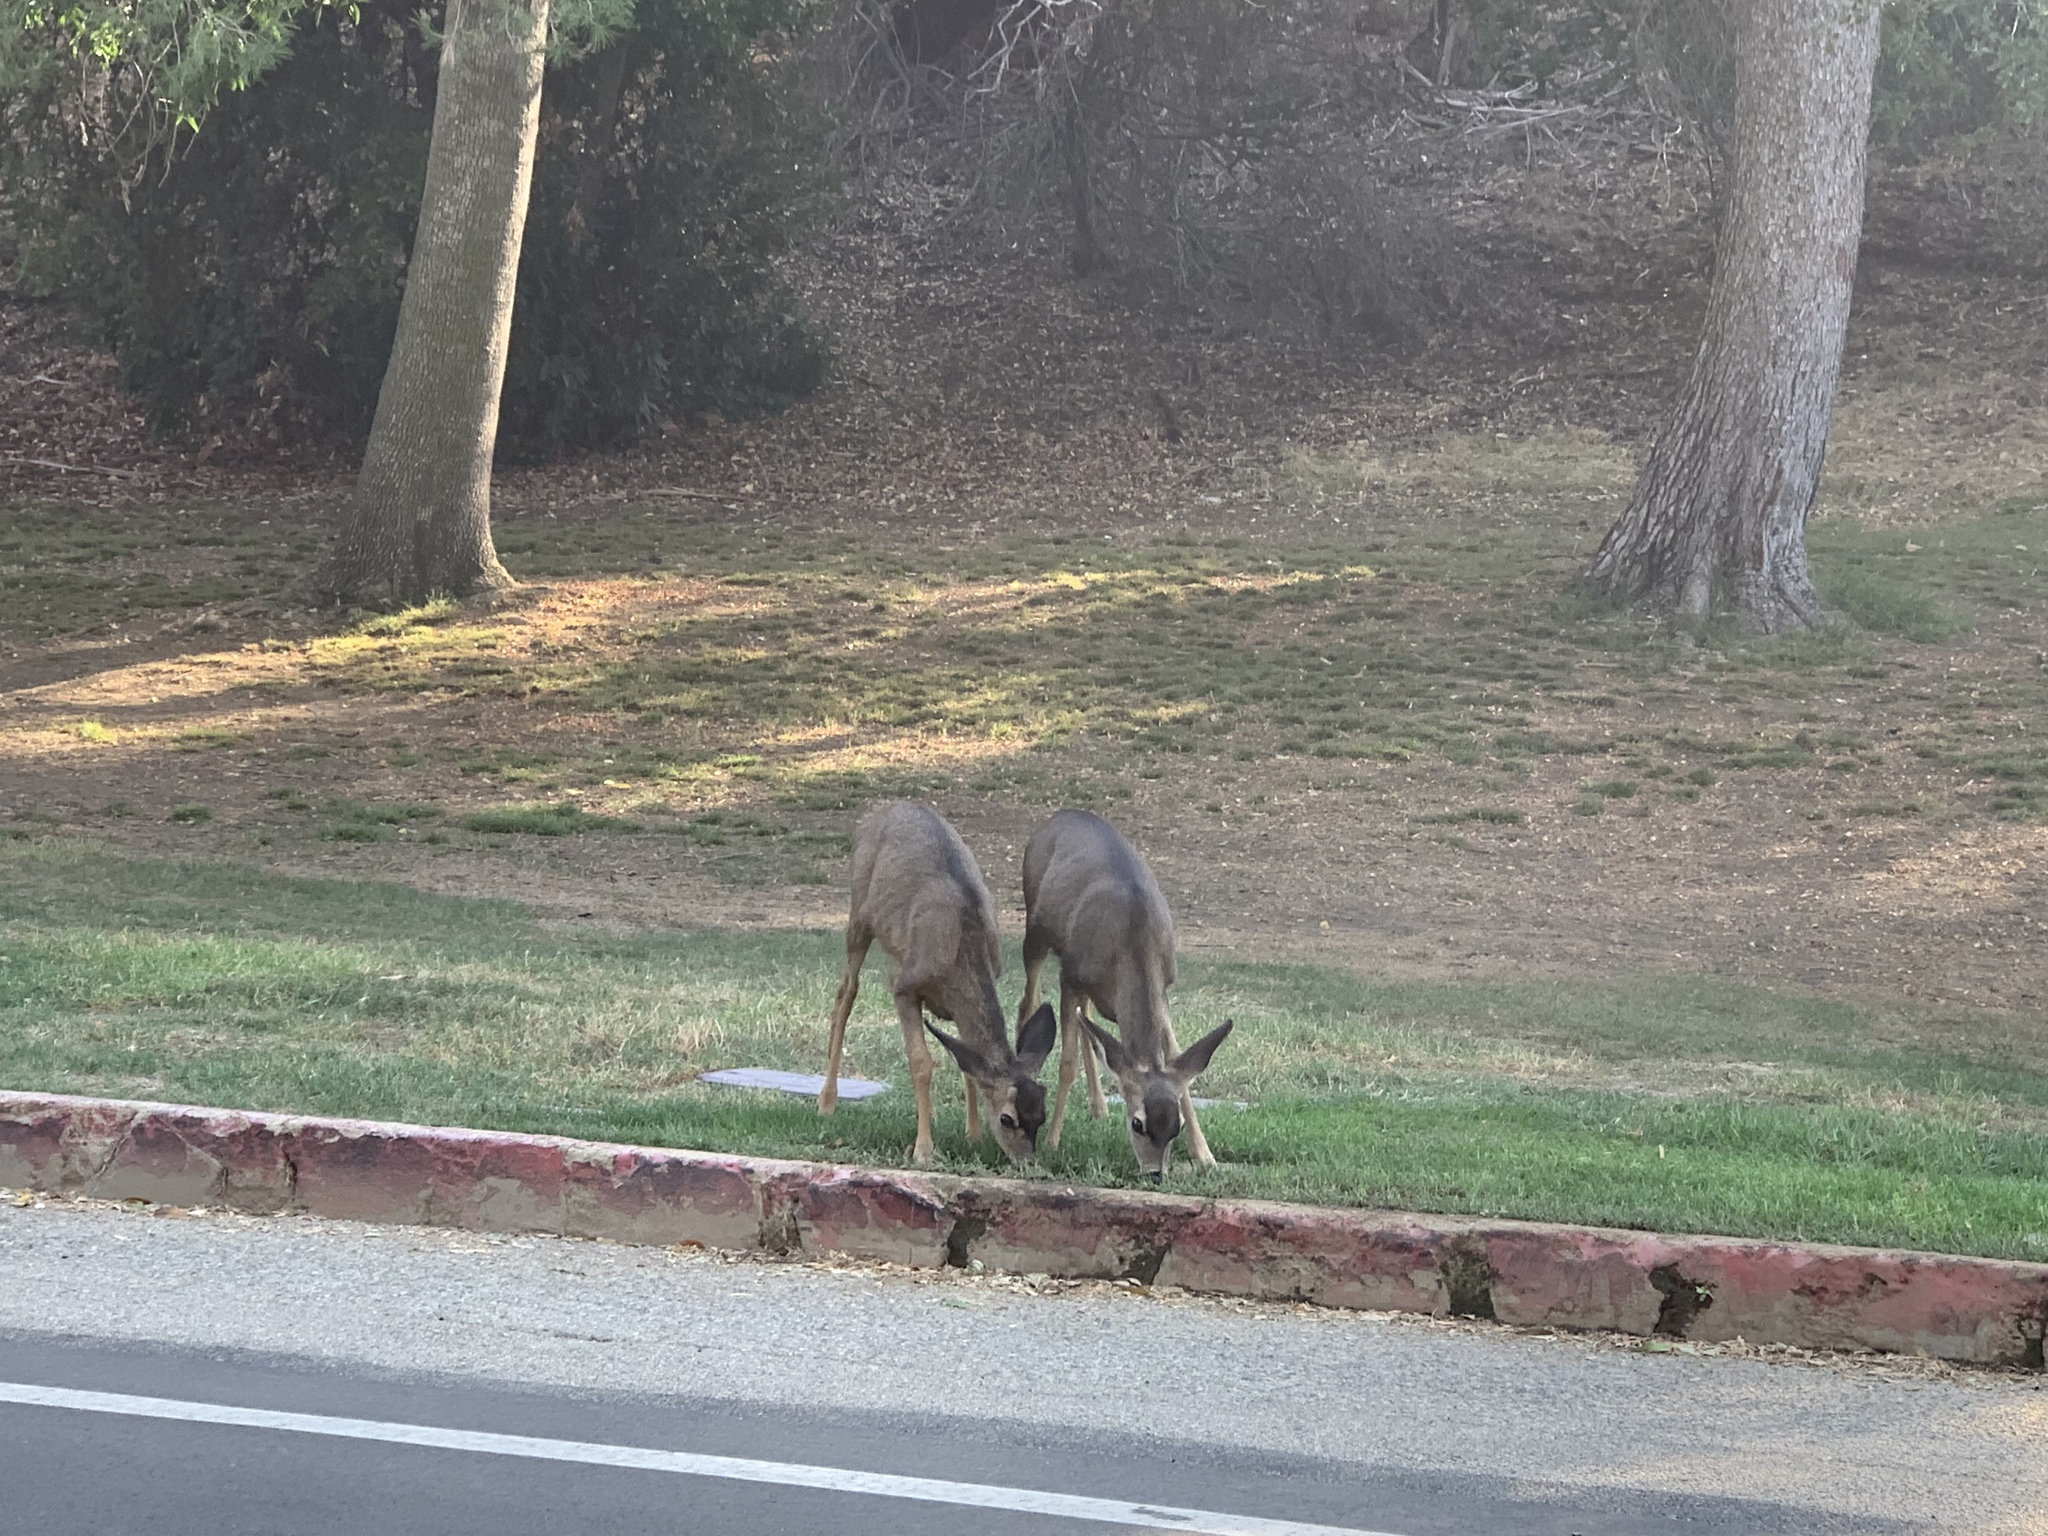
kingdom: Animalia
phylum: Chordata
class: Mammalia
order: Artiodactyla
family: Cervidae
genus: Odocoileus
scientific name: Odocoileus hemionus
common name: Mule deer
